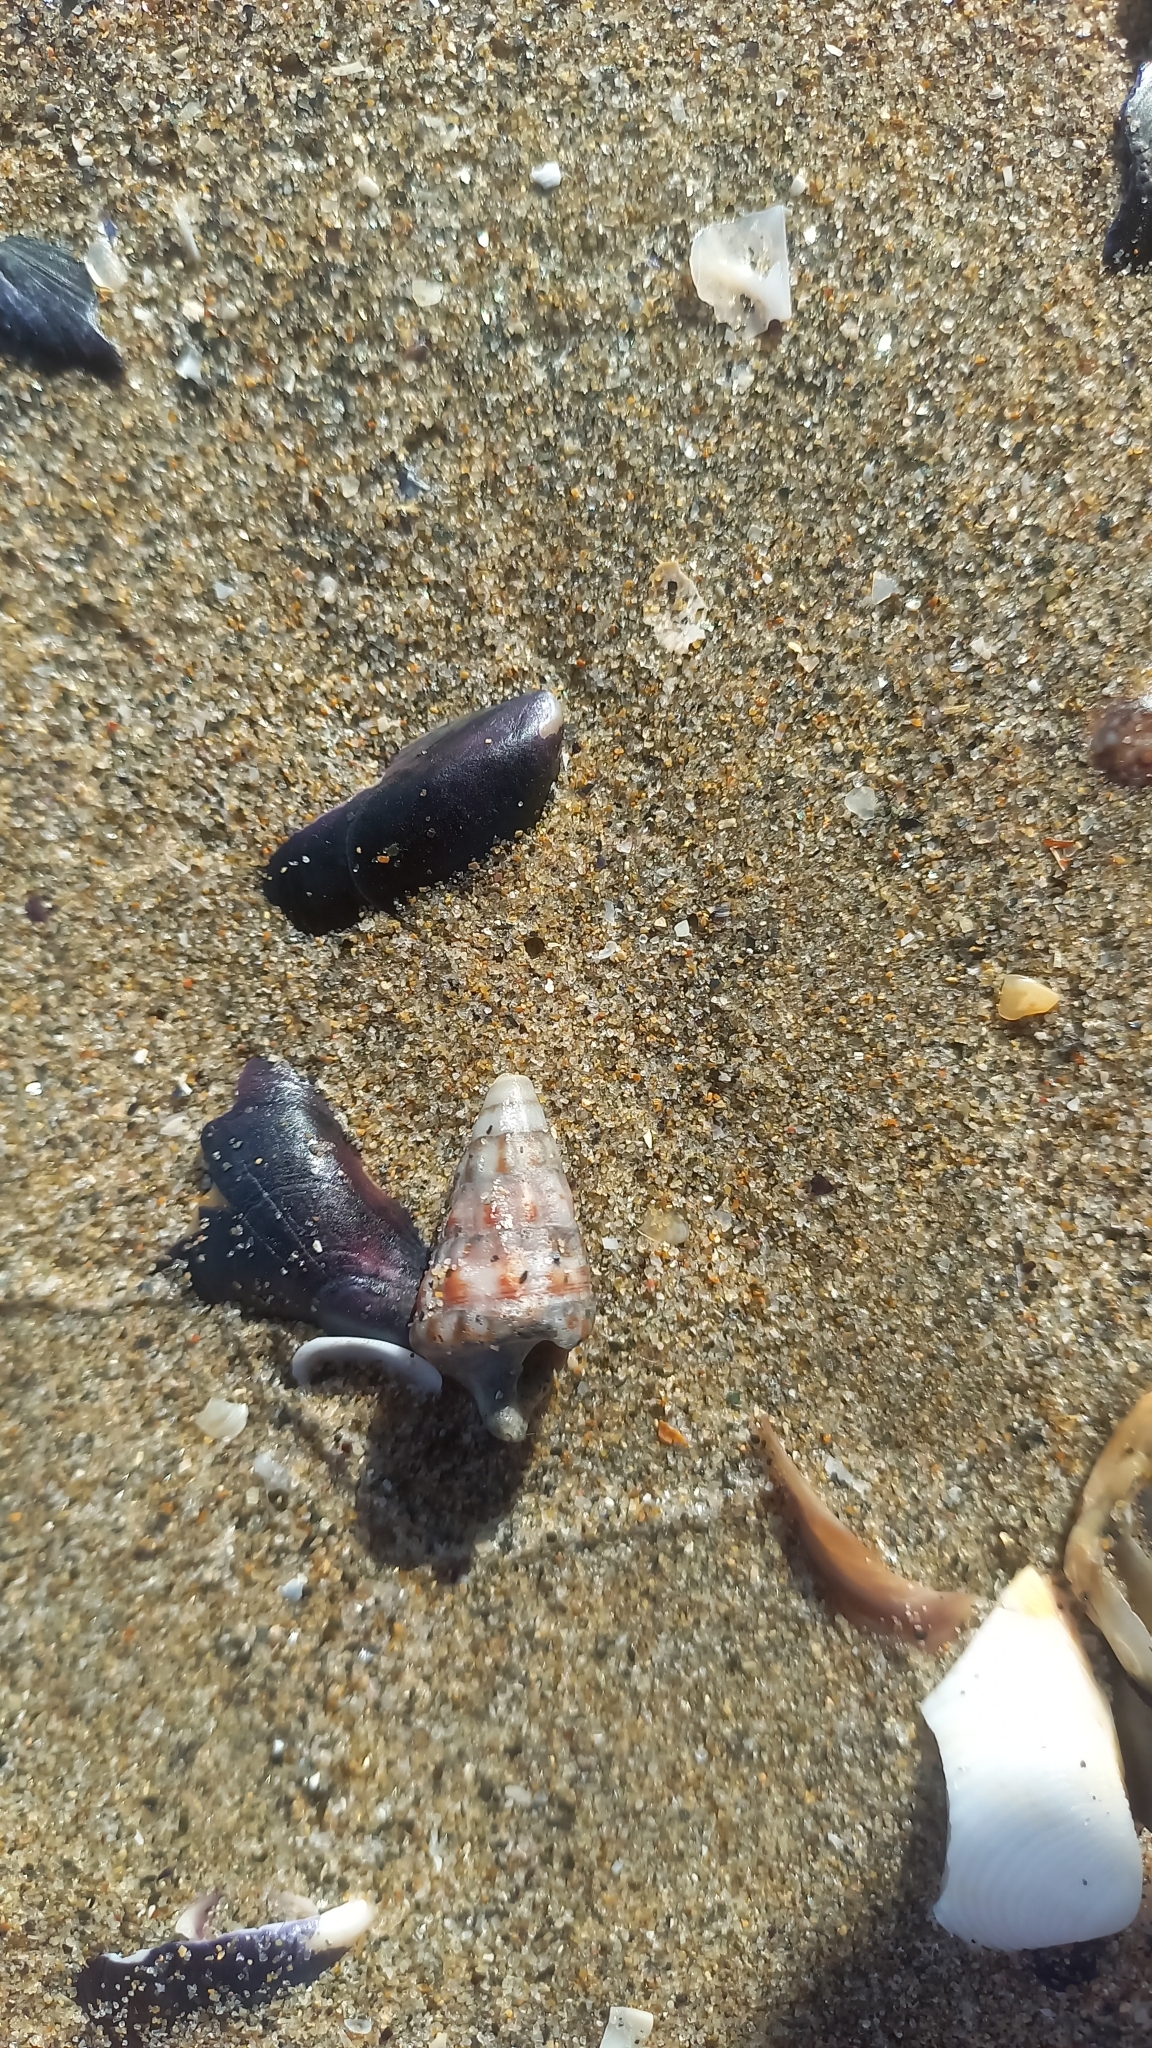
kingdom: Animalia
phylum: Mollusca
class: Gastropoda
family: Cerithiidae
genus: Cerithium
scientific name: Cerithium vulgatum
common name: European cerith
